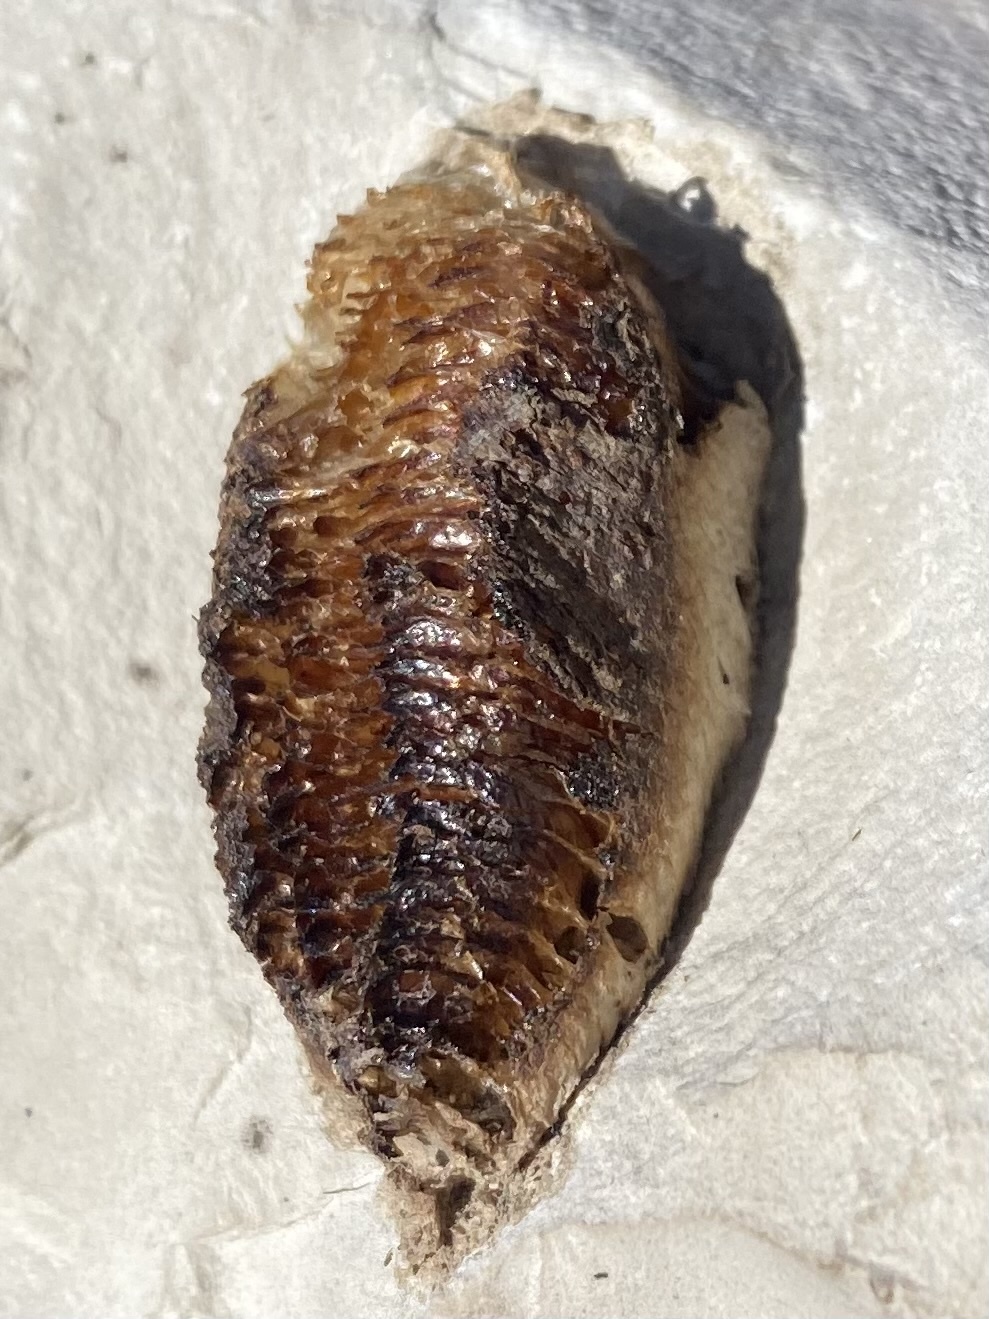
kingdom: Animalia
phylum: Arthropoda
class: Insecta
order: Mantodea
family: Mantidae
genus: Mantis
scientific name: Mantis religiosa
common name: Praying mantis
